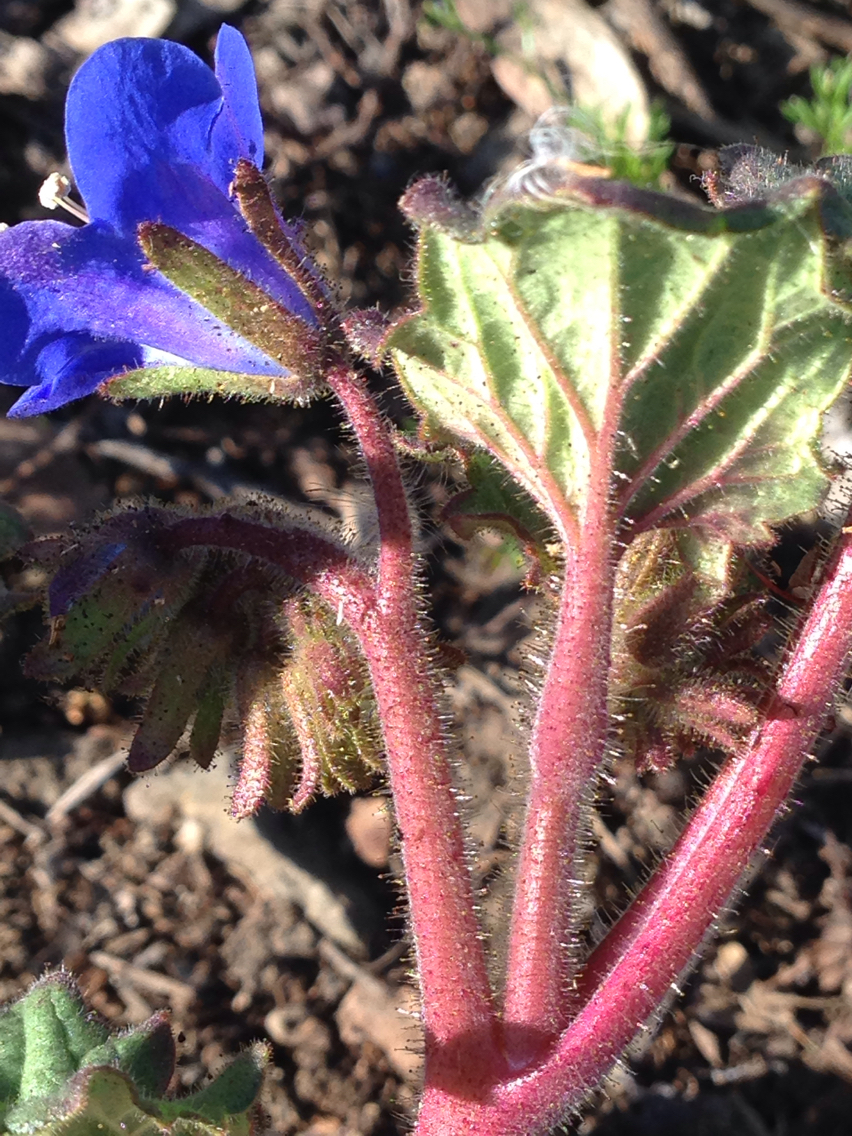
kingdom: Plantae
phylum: Tracheophyta
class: Magnoliopsida
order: Boraginales
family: Hydrophyllaceae
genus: Phacelia
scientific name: Phacelia campanularia
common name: California bluebell
